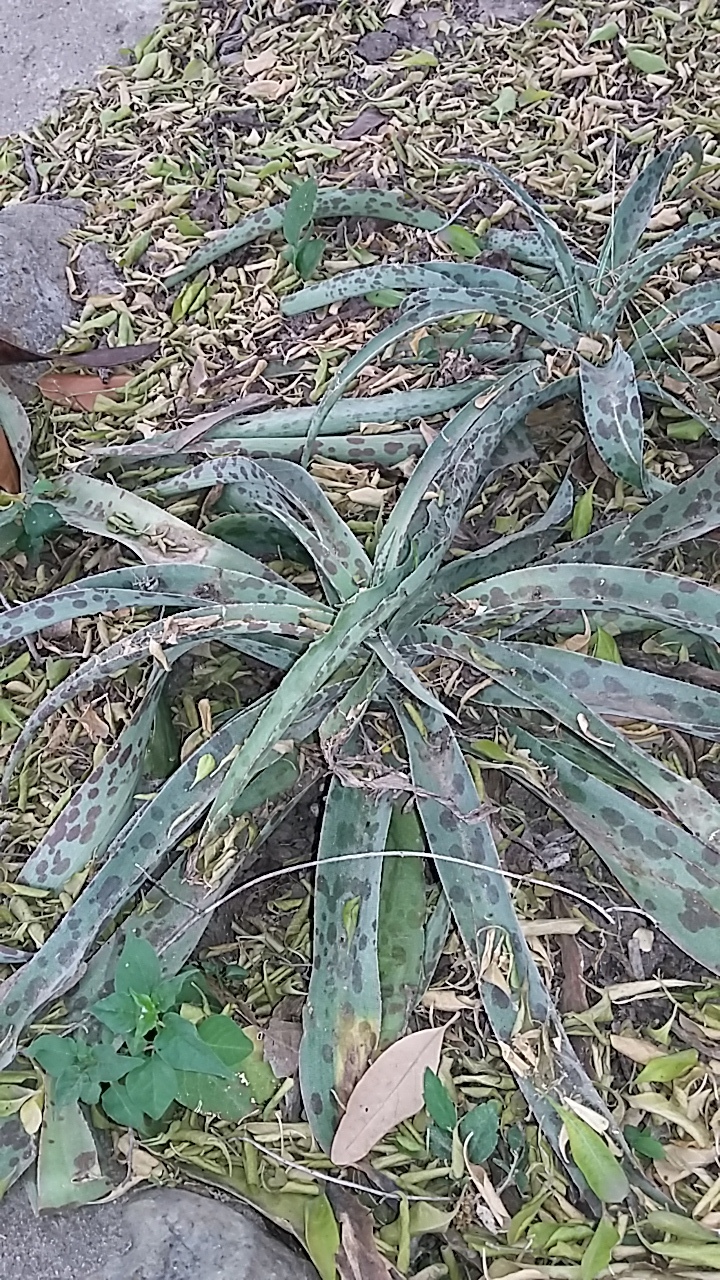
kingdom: Plantae
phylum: Tracheophyta
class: Liliopsida
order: Asparagales
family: Asparagaceae
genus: Agave
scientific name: Agave variegata
